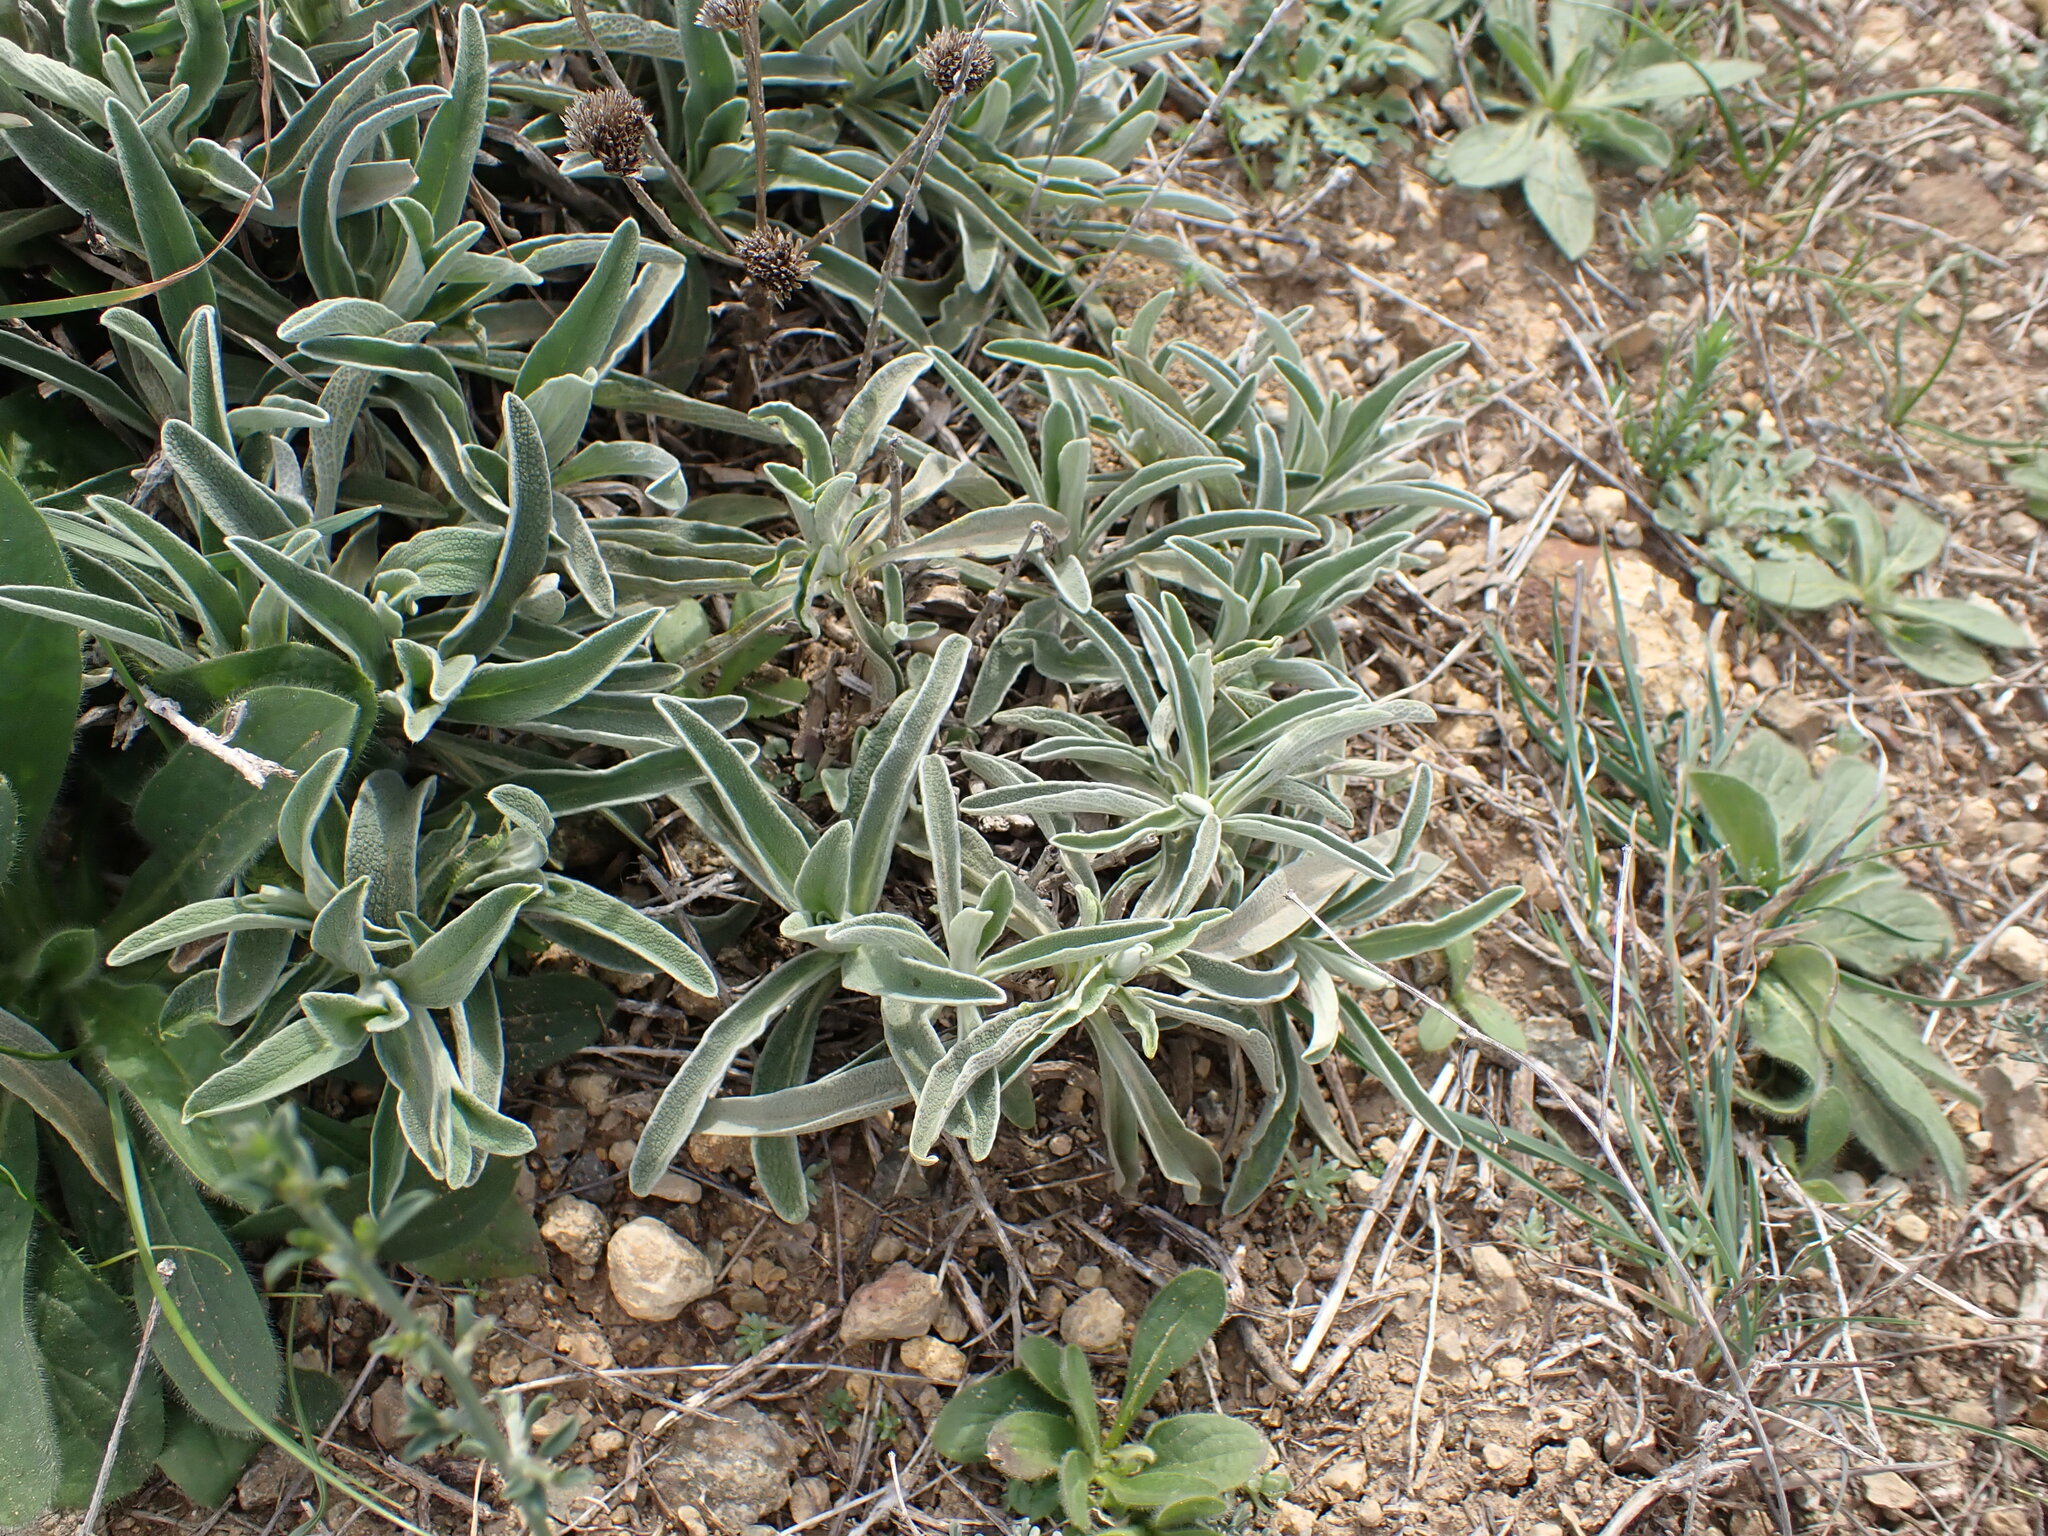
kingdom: Plantae
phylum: Tracheophyta
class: Magnoliopsida
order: Lamiales
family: Lamiaceae
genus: Phlomis
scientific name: Phlomis lychnitis
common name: Lampwickplant
